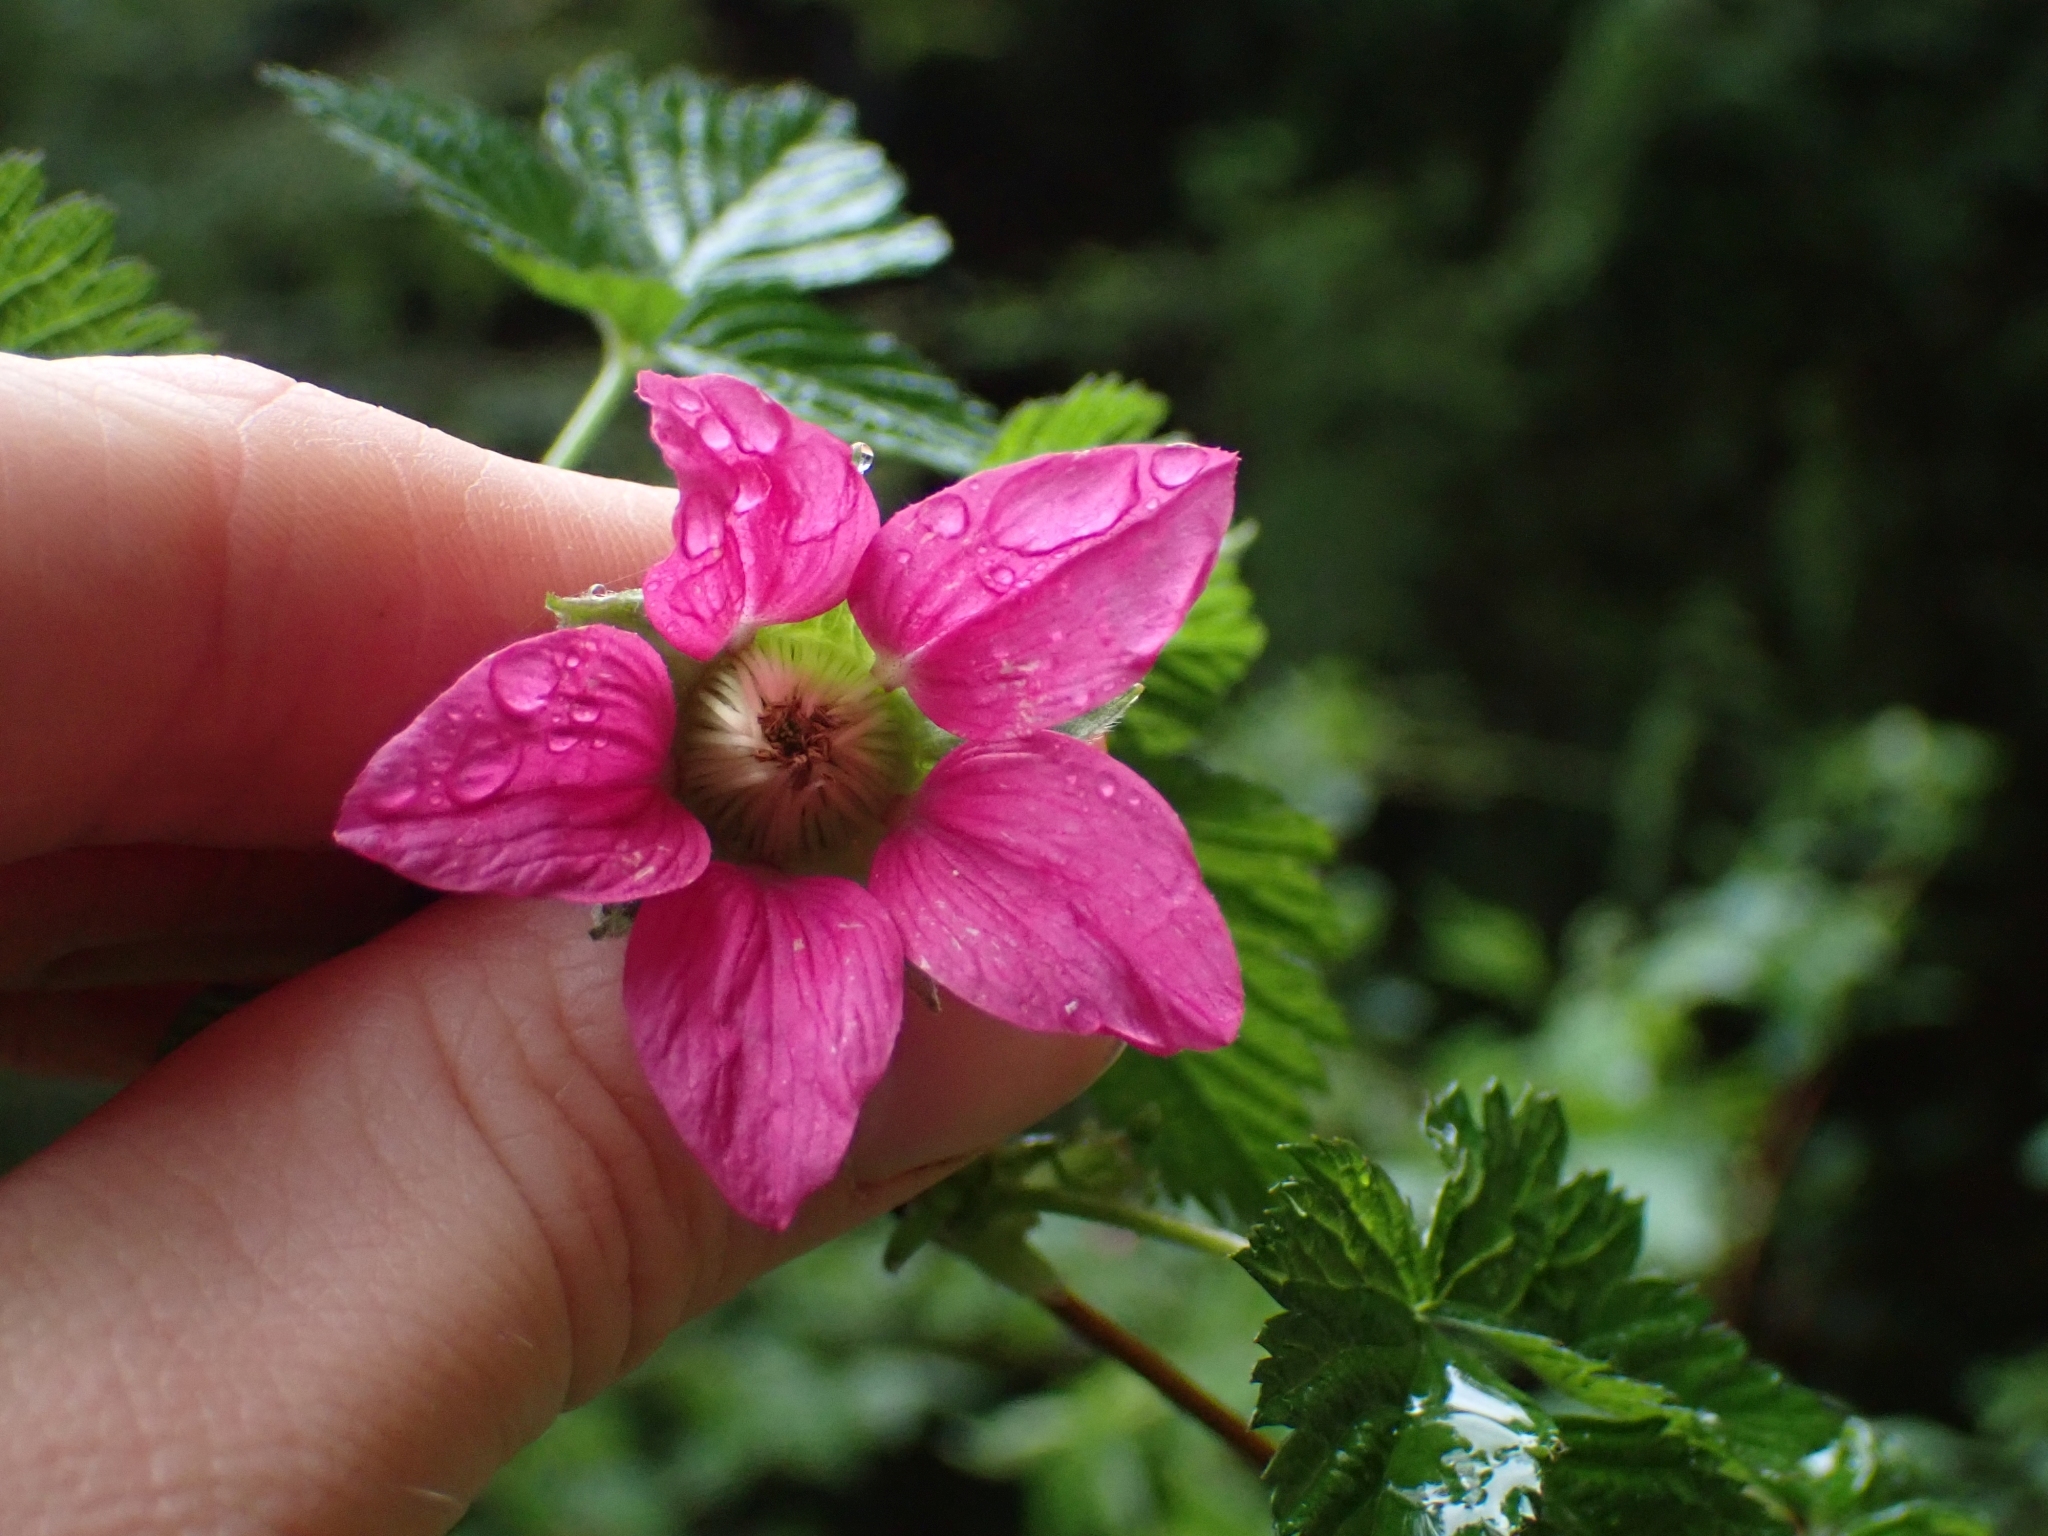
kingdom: Plantae
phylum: Tracheophyta
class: Magnoliopsida
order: Rosales
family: Rosaceae
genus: Rubus
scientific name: Rubus spectabilis
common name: Salmonberry
